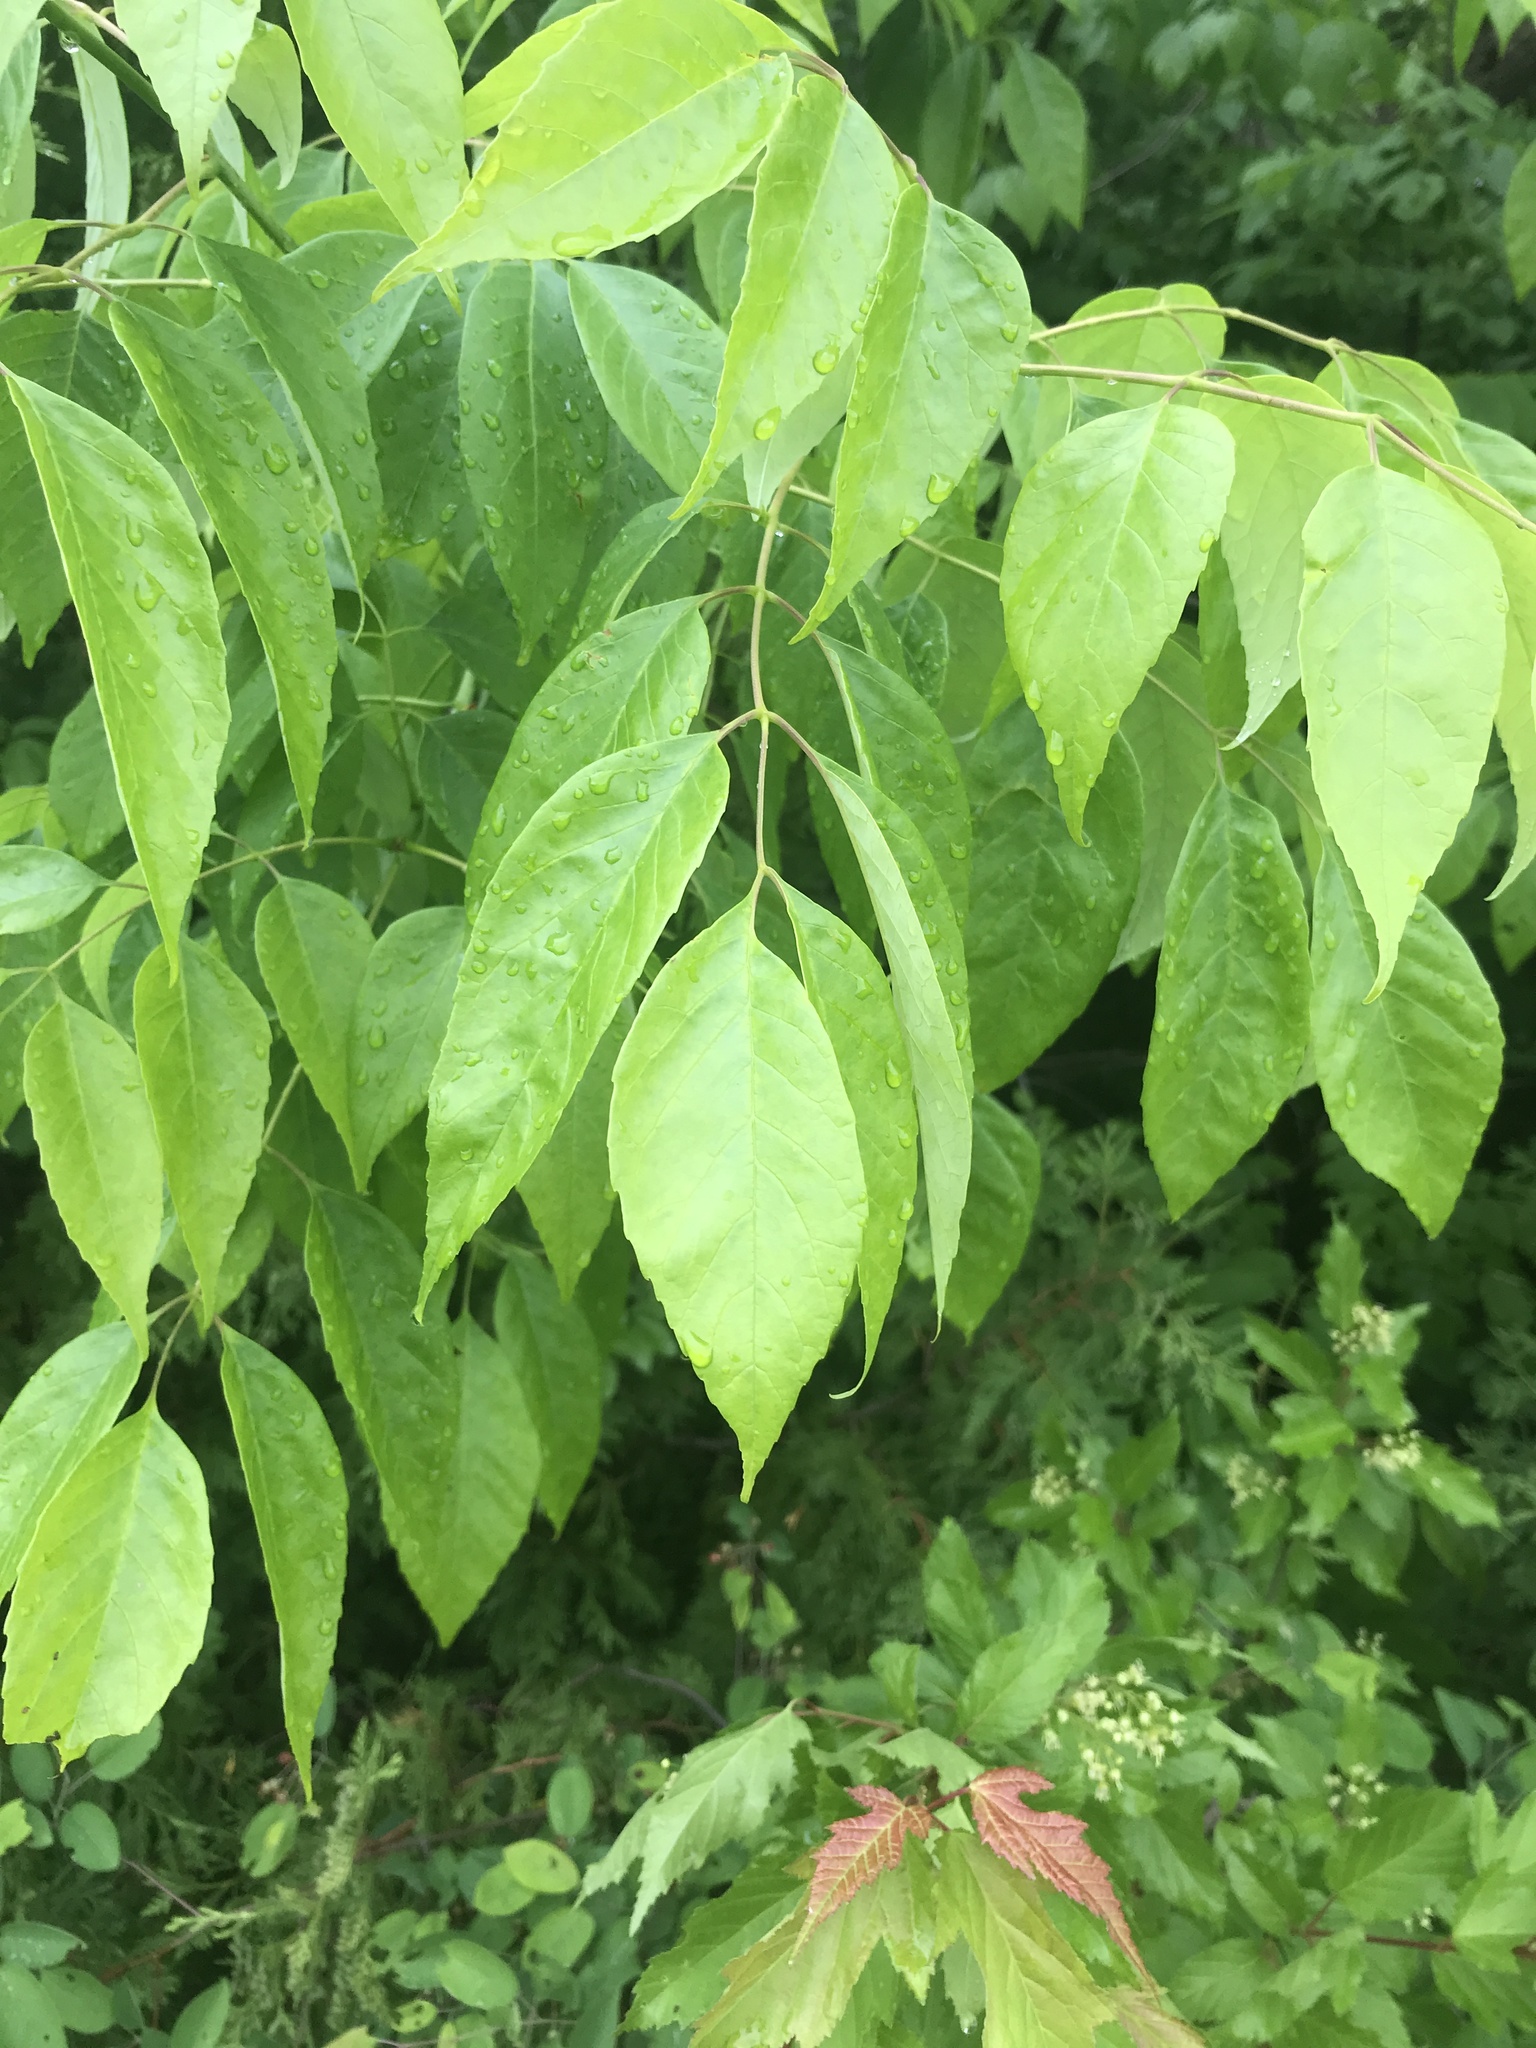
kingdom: Plantae
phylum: Tracheophyta
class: Magnoliopsida
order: Lamiales
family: Oleaceae
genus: Fraxinus
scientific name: Fraxinus americana
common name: White ash
